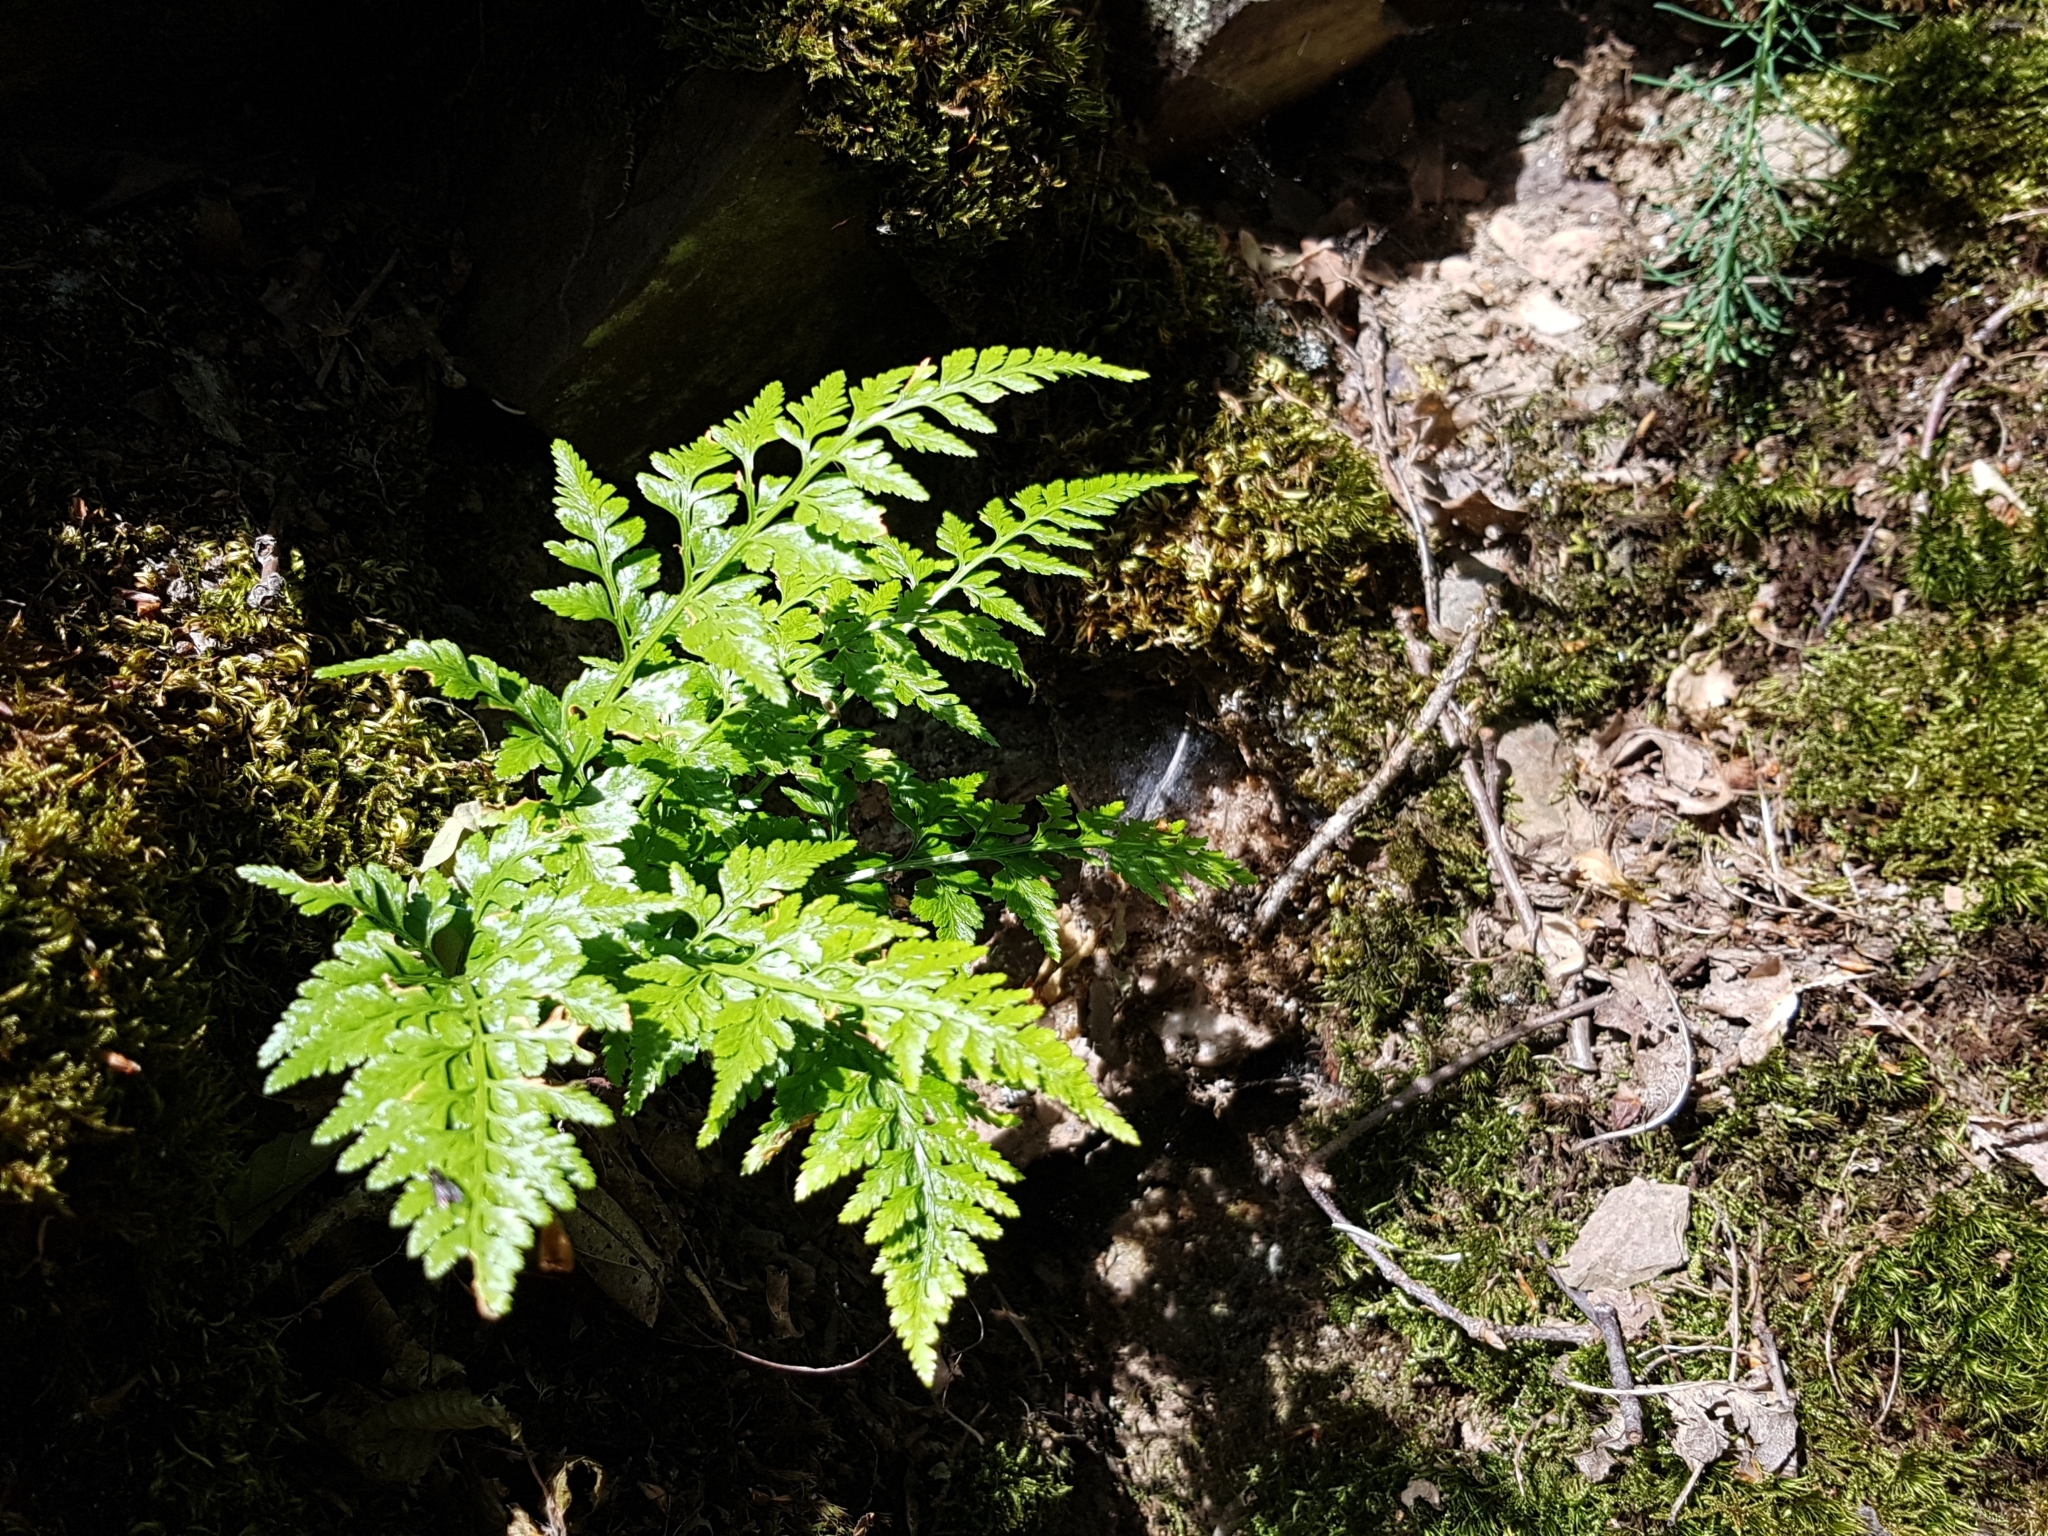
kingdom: Plantae
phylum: Tracheophyta
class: Polypodiopsida
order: Polypodiales
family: Aspleniaceae
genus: Asplenium
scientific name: Asplenium adiantum-nigrum
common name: Black spleenwort
